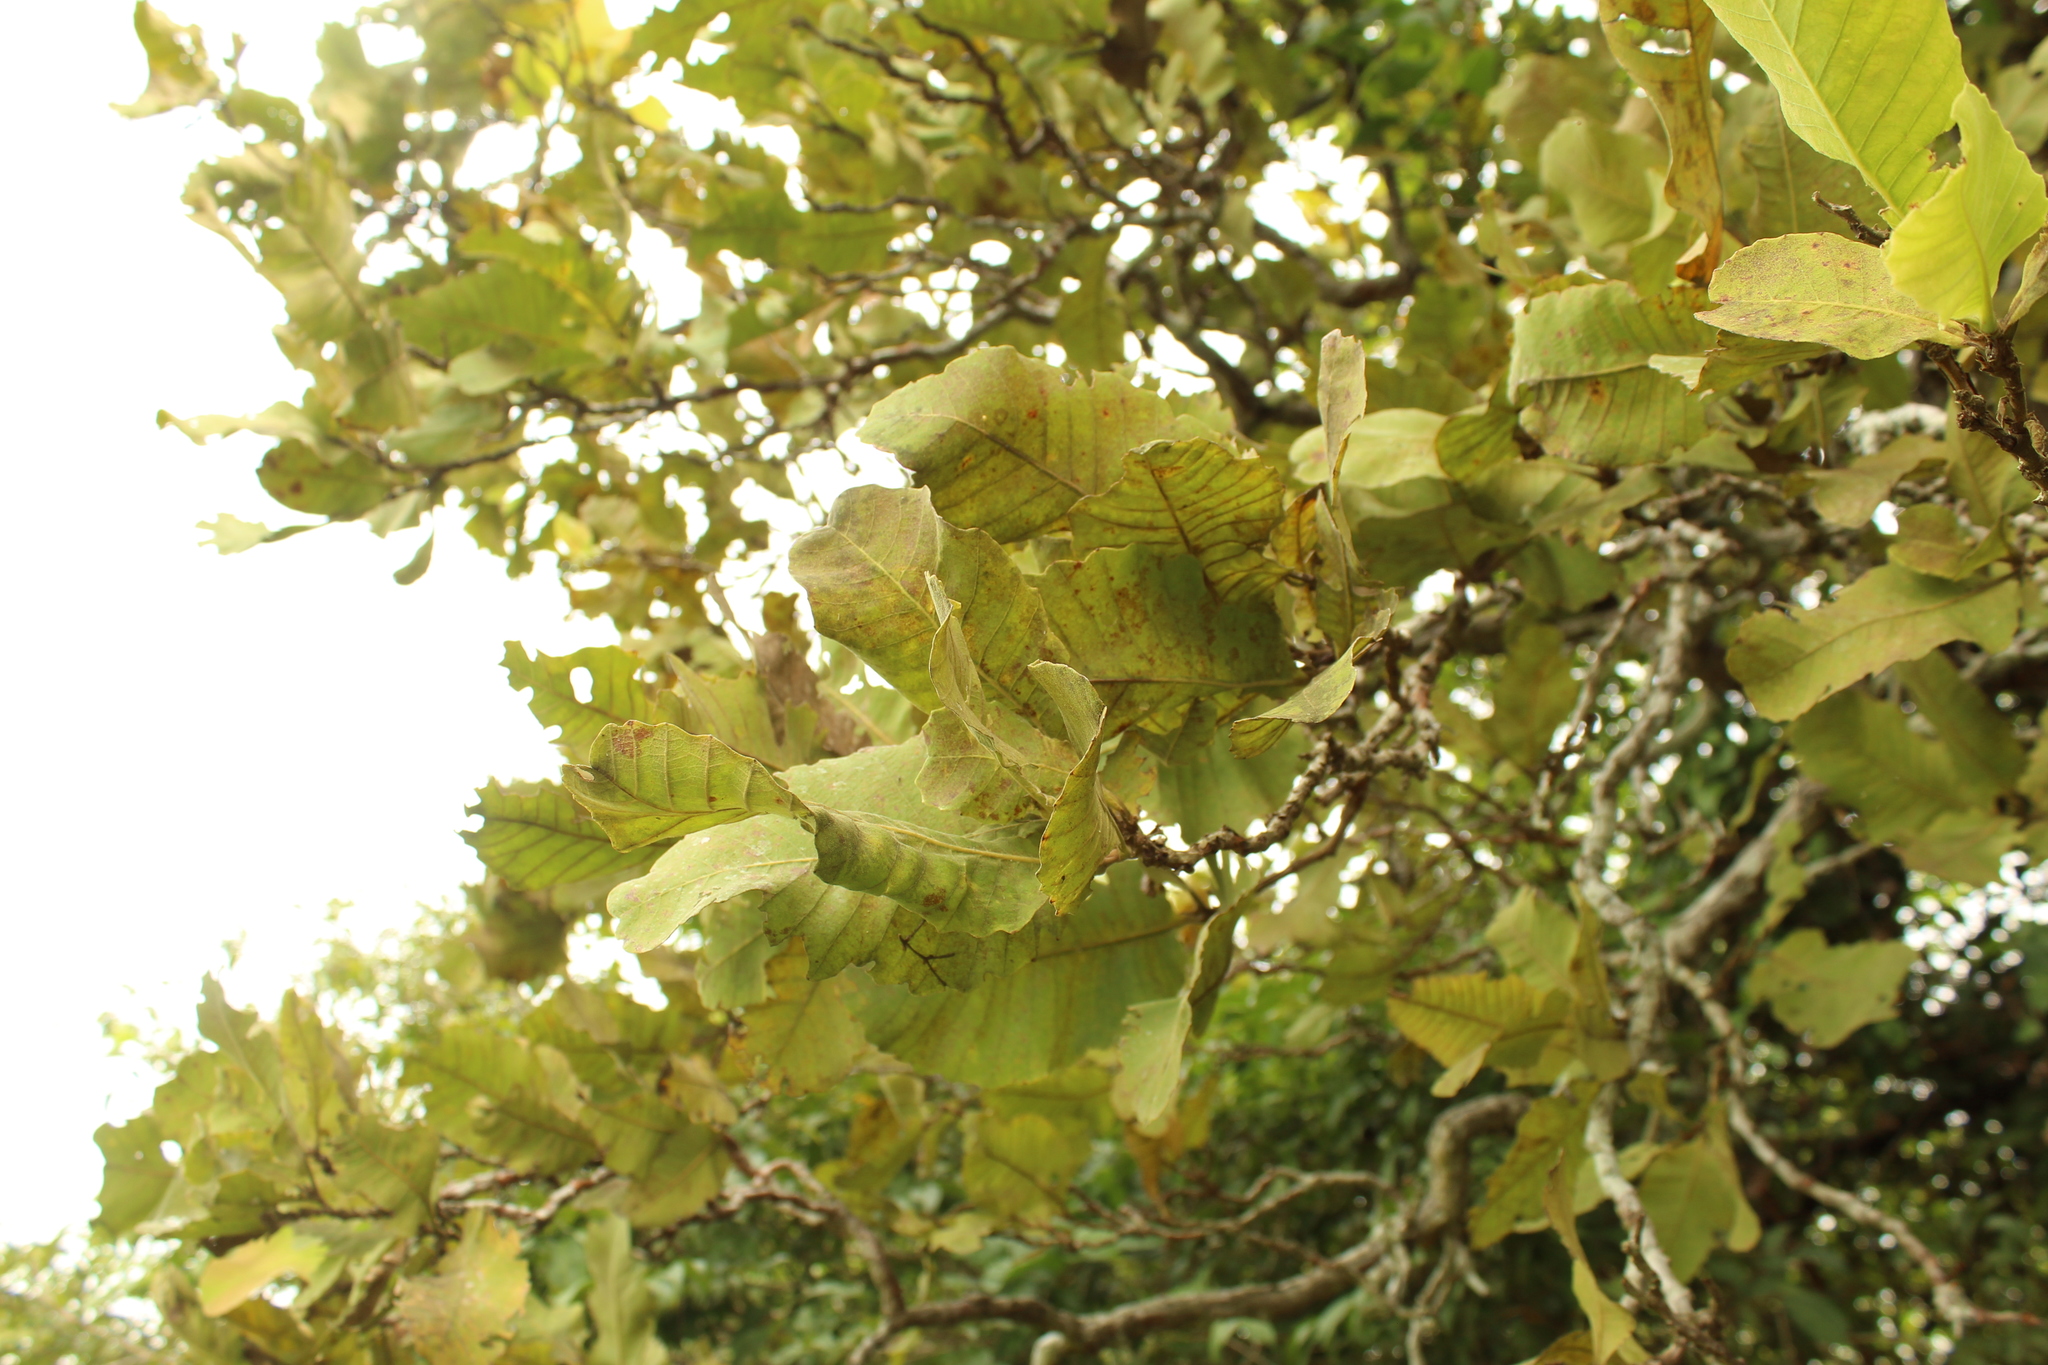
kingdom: Plantae
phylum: Tracheophyta
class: Magnoliopsida
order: Dilleniales
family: Dilleniaceae
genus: Curatella
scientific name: Curatella americana
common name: Sandpaper tree
